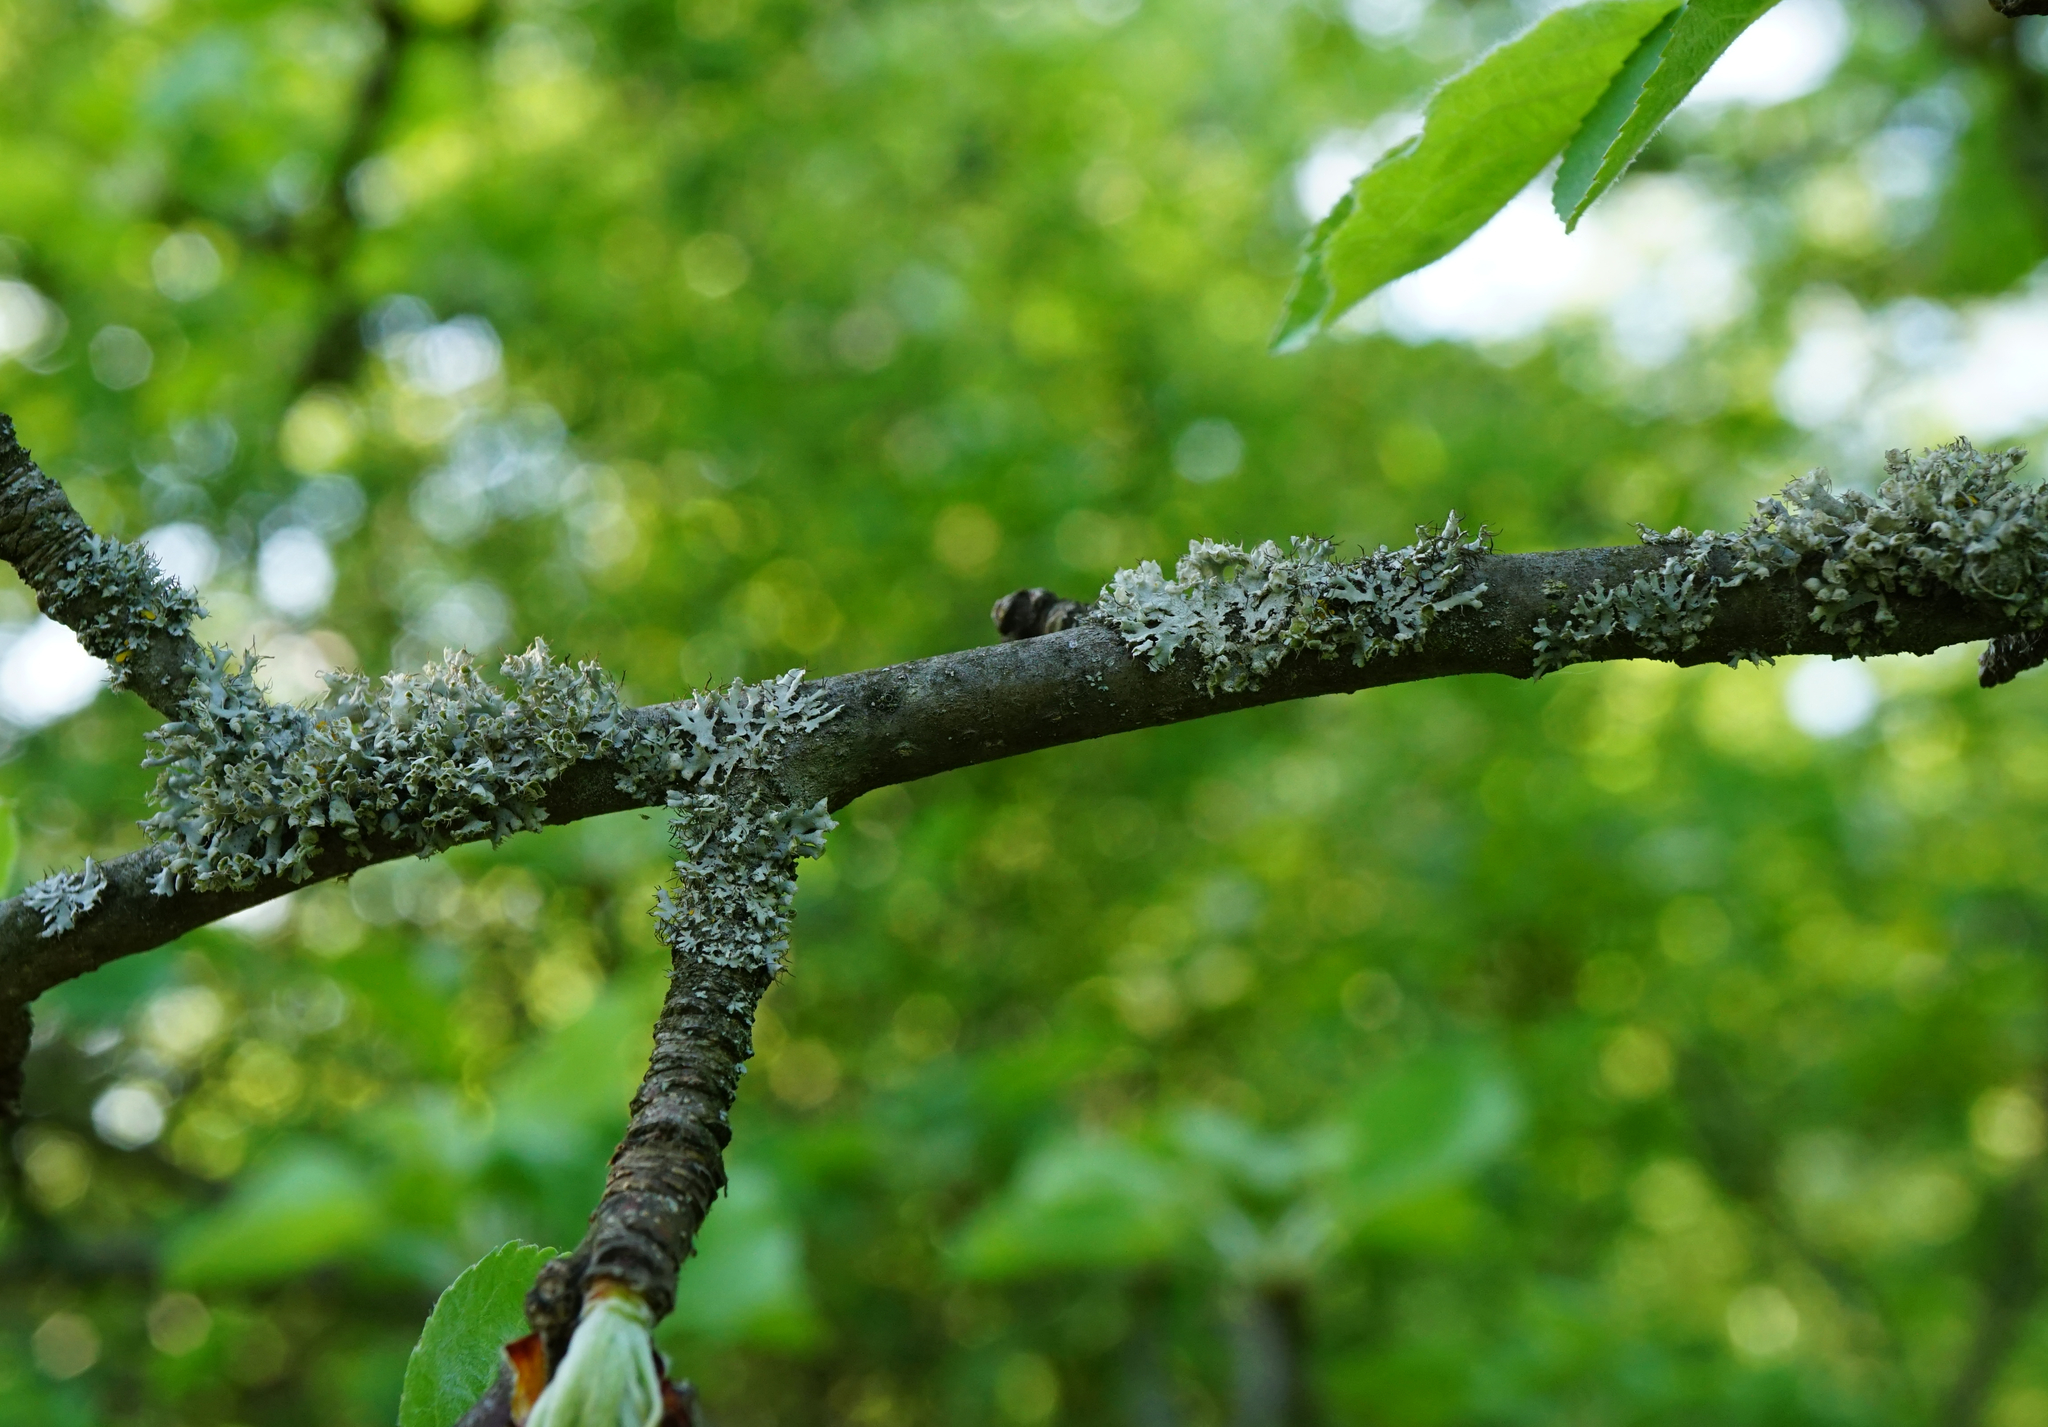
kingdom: Fungi
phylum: Ascomycota
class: Lecanoromycetes
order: Caliciales
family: Physciaceae
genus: Physcia
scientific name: Physcia adscendens
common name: Hooded rosette lichen
